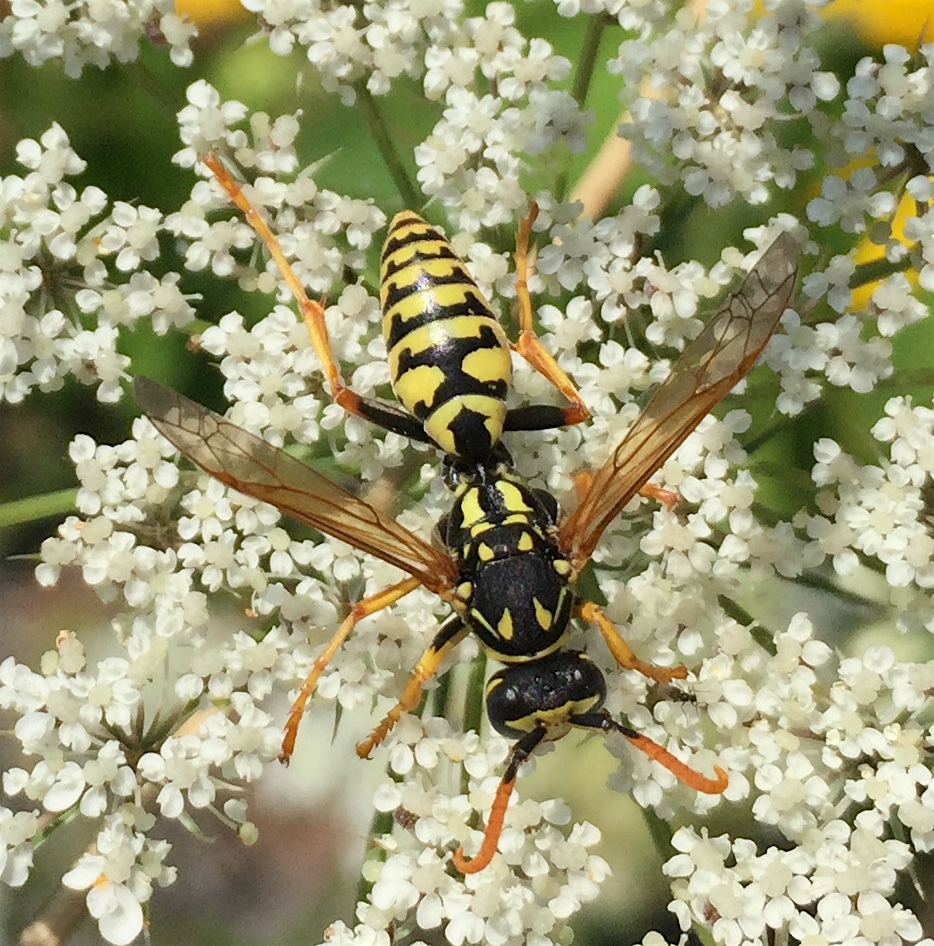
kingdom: Animalia
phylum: Arthropoda
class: Insecta
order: Hymenoptera
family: Eumenidae
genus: Polistes
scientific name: Polistes dominula
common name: Paper wasp
